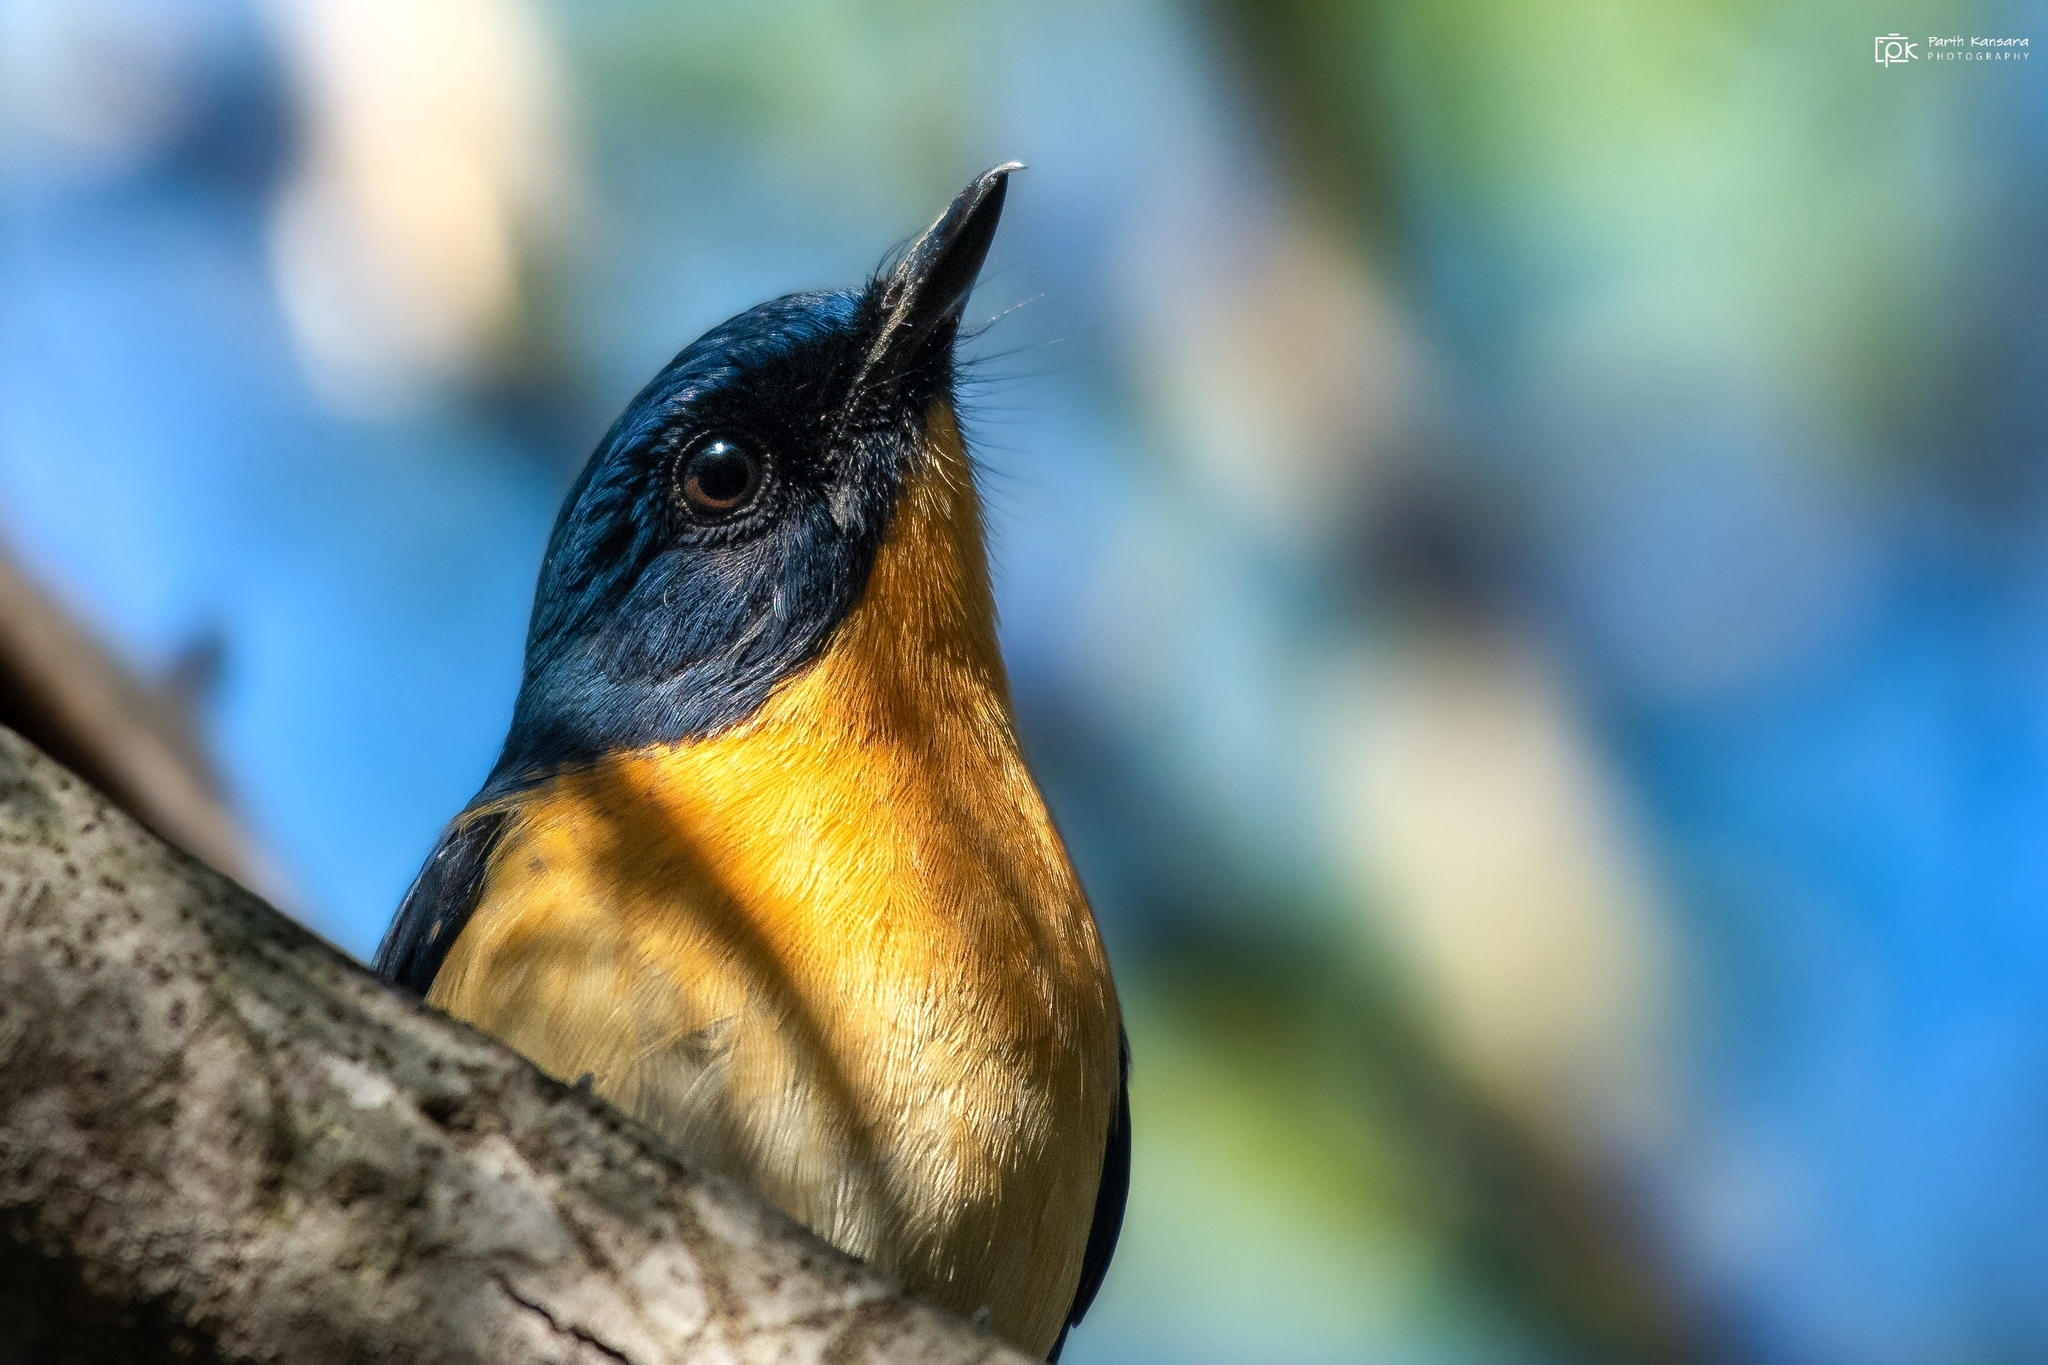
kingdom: Animalia
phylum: Chordata
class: Aves
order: Passeriformes
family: Muscicapidae
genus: Cyornis
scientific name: Cyornis tickelliae
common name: Tickell's blue flycatcher
